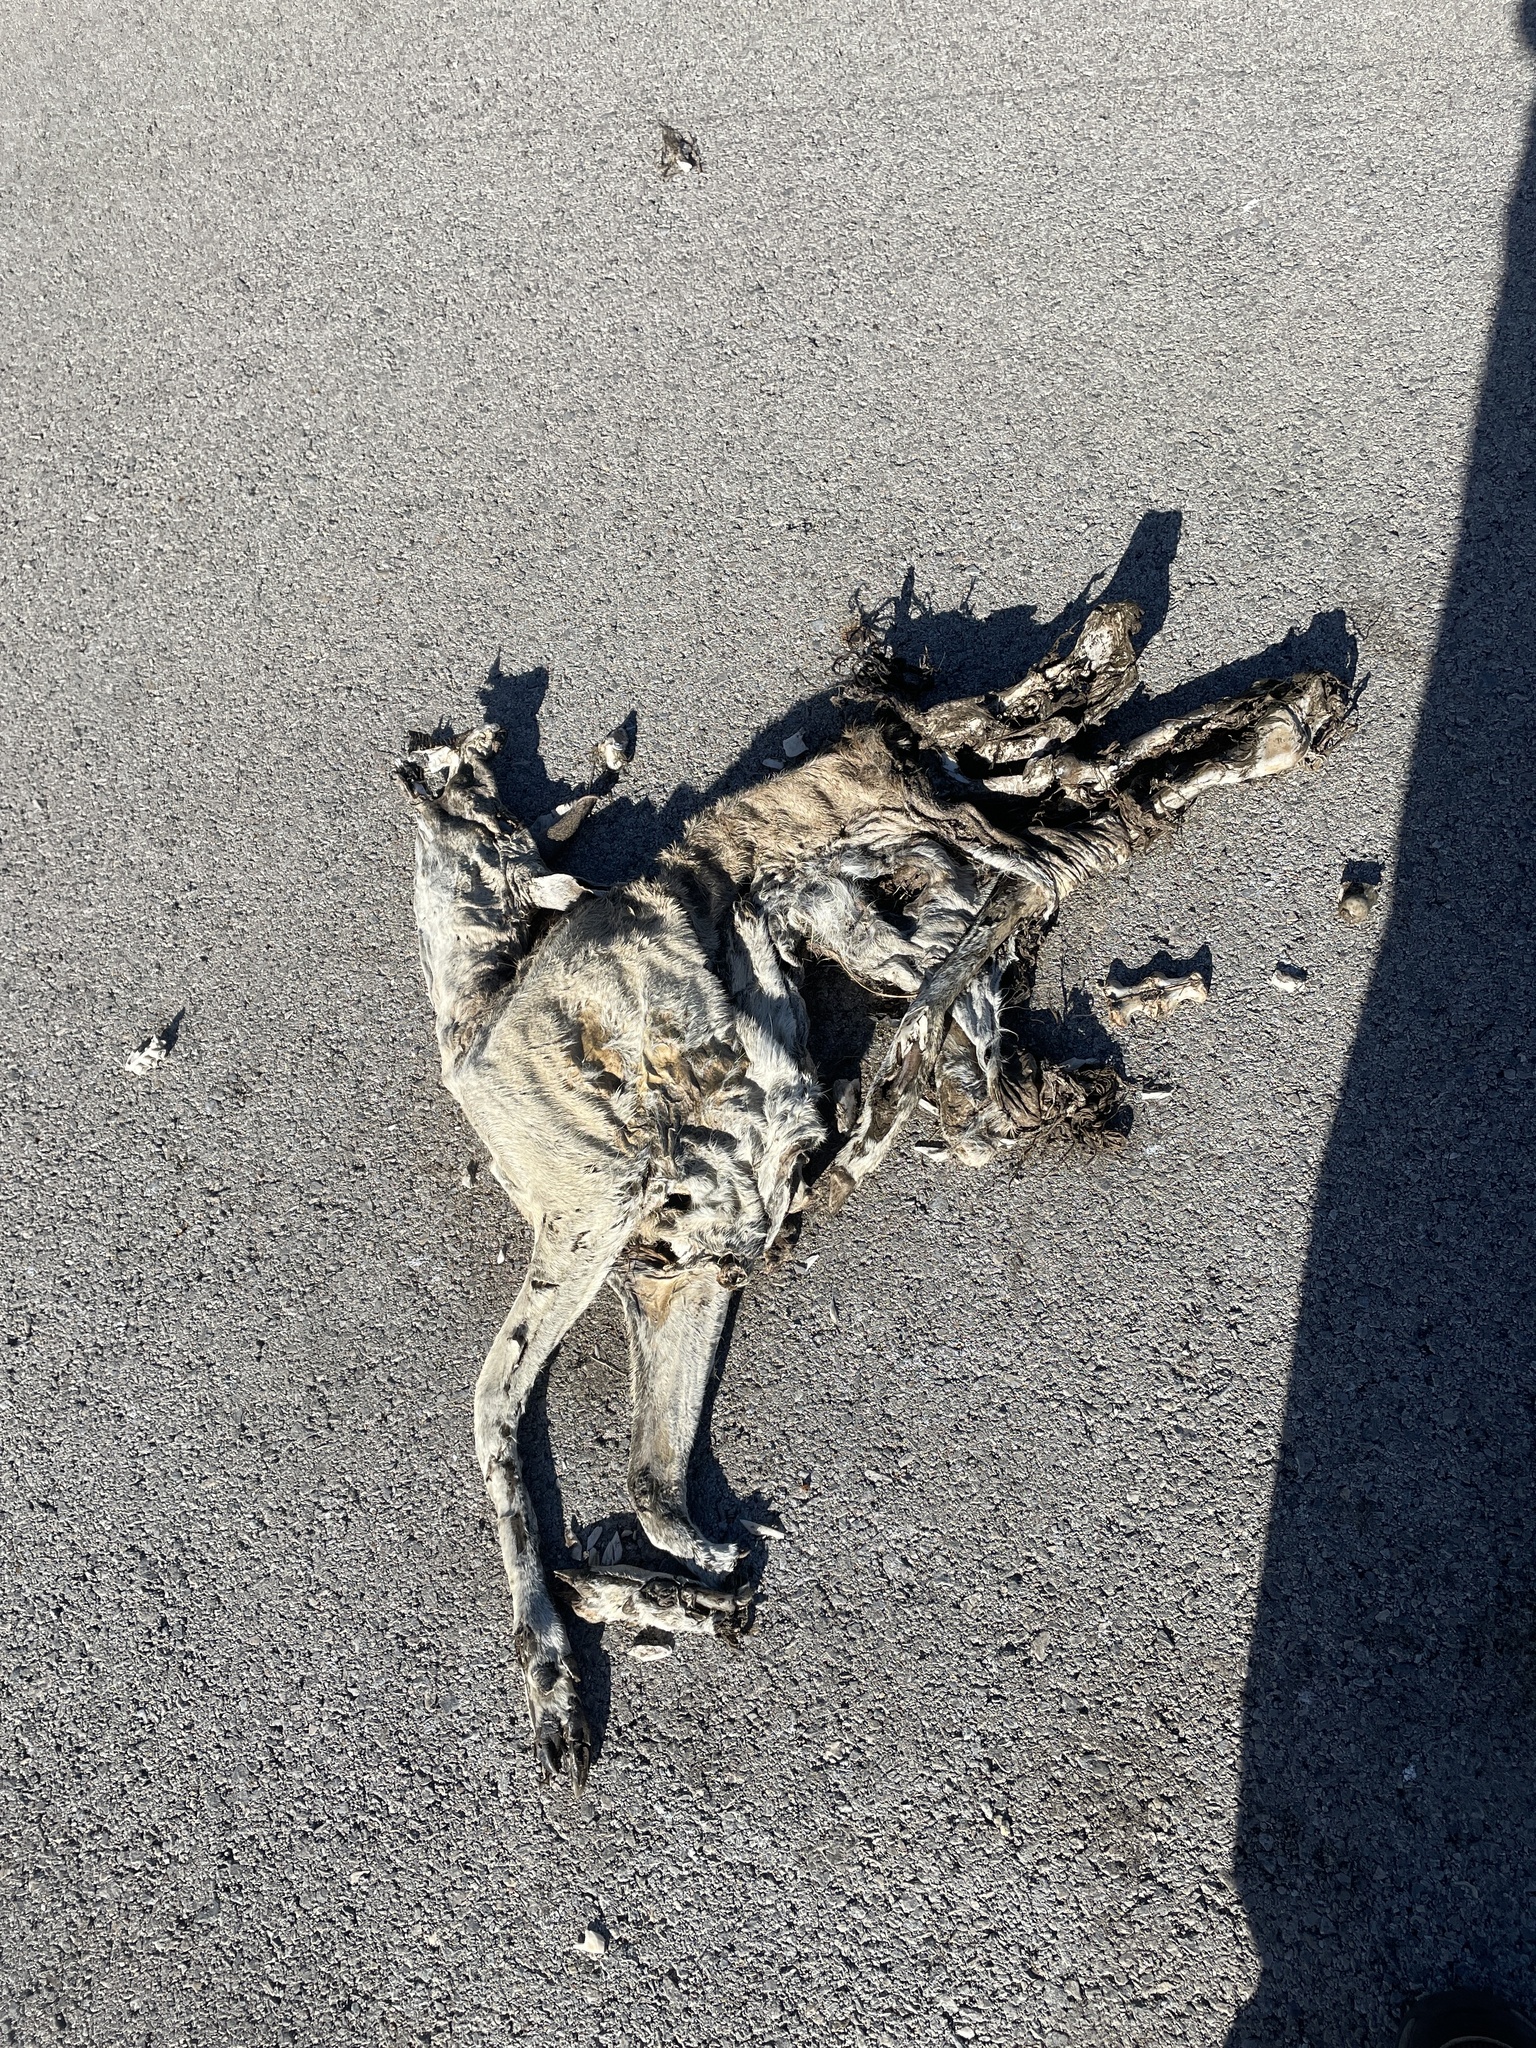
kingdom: Animalia
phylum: Chordata
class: Mammalia
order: Artiodactyla
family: Cervidae
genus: Odocoileus
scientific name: Odocoileus virginianus
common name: White-tailed deer
